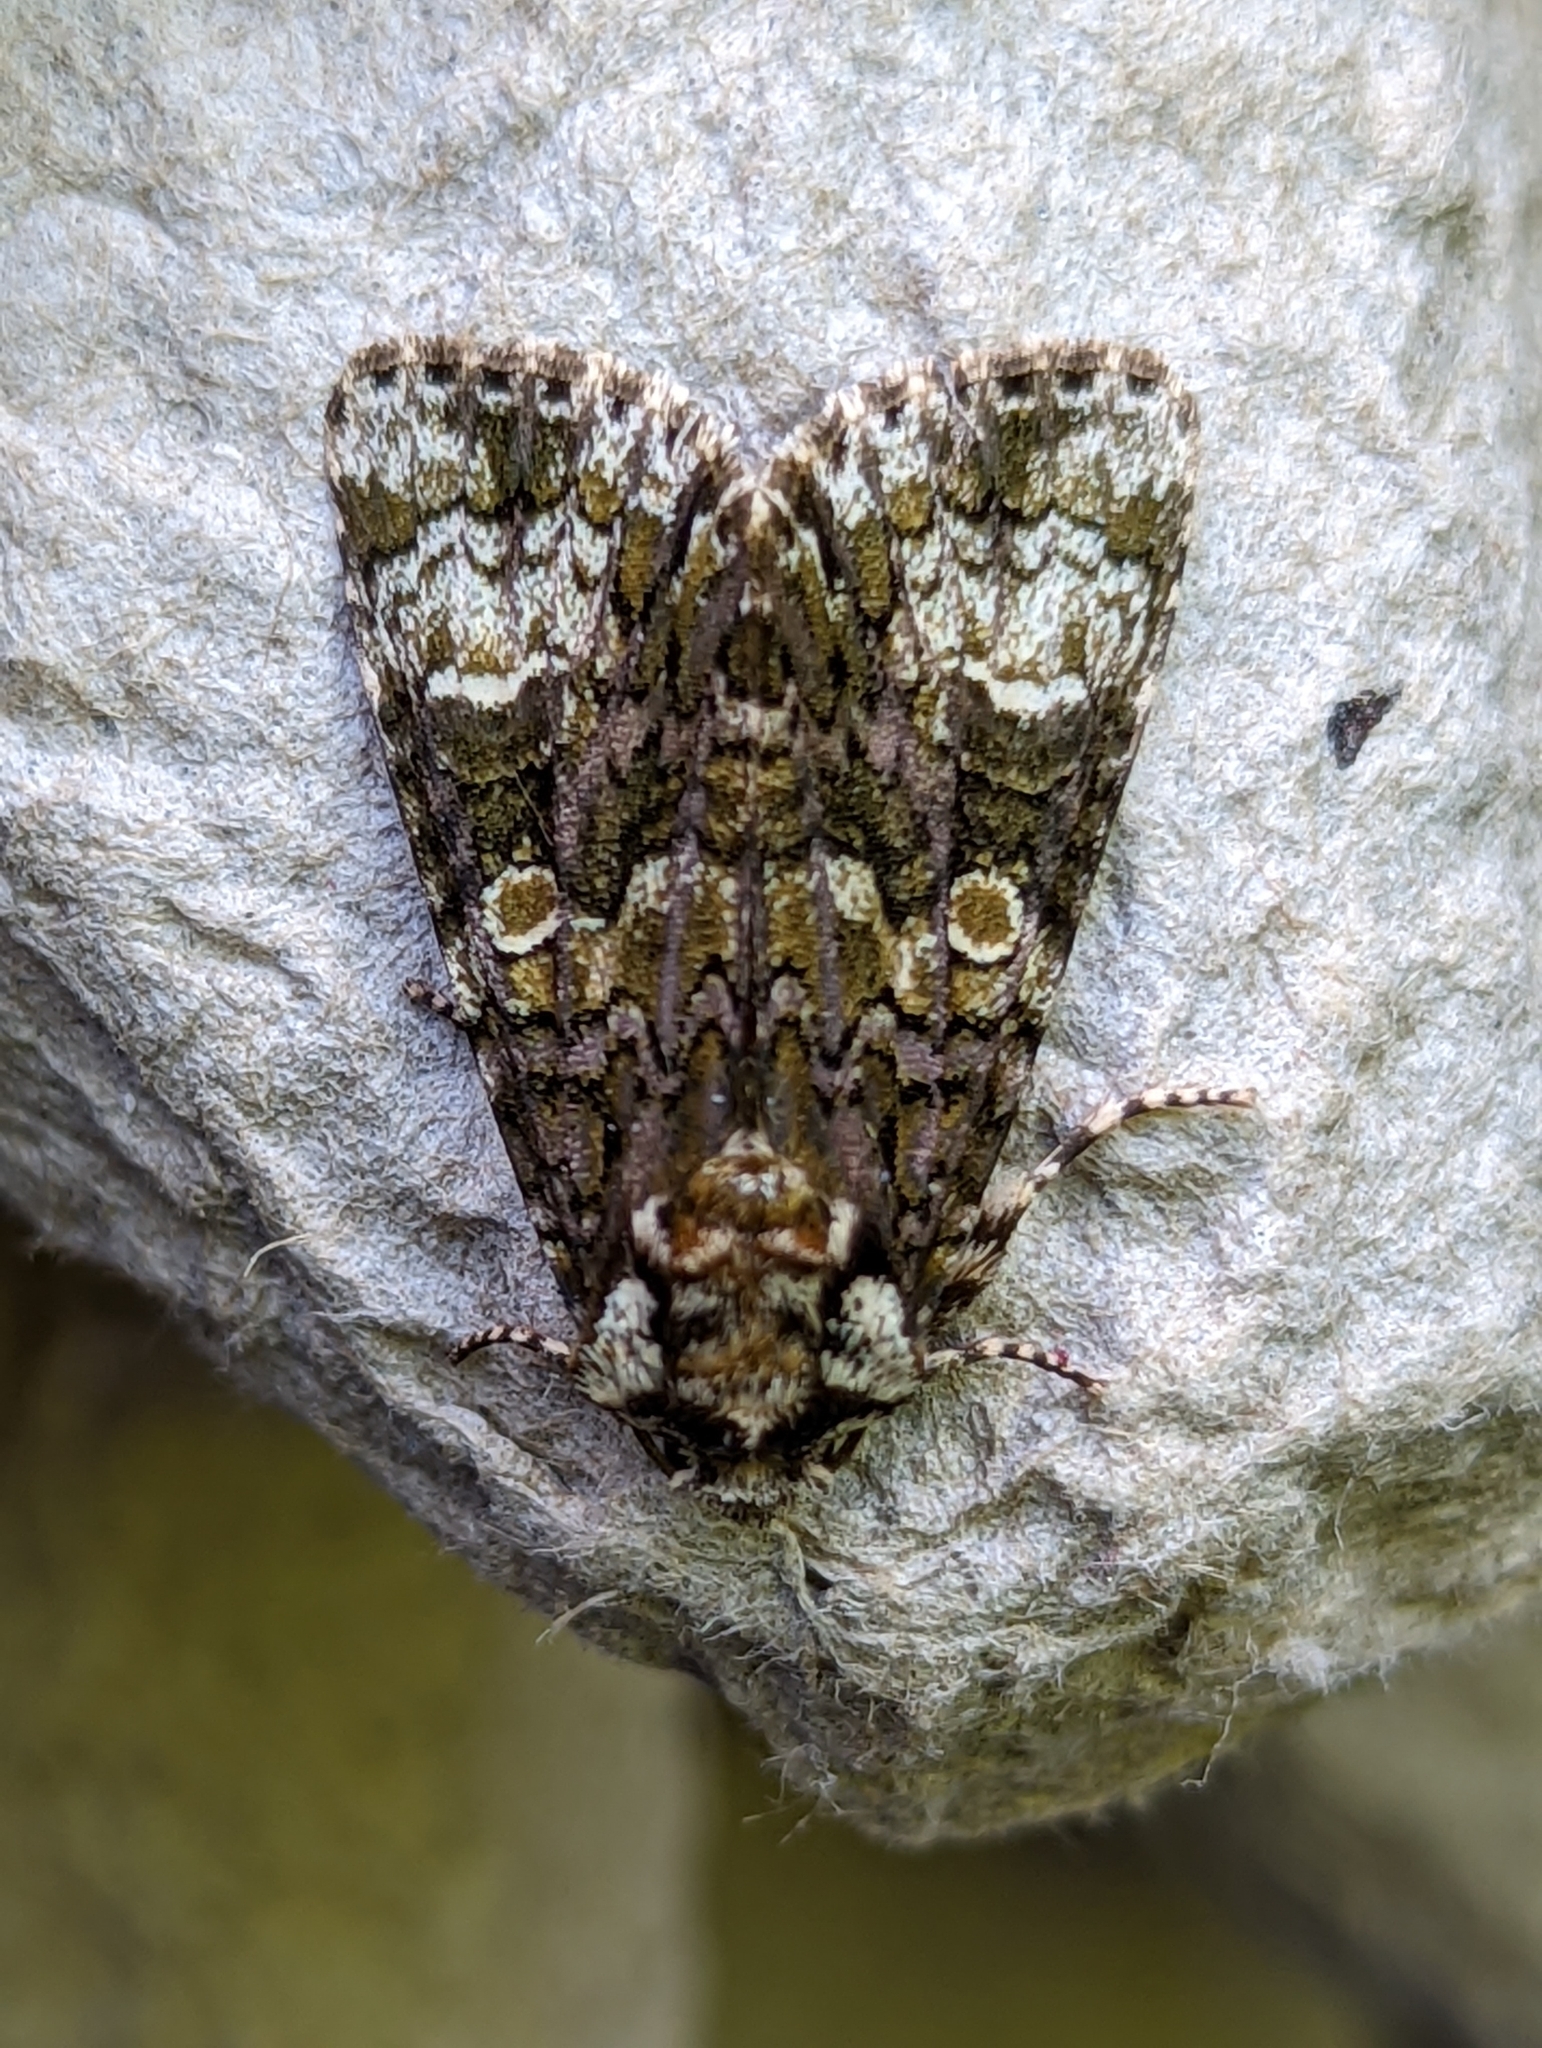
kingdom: Animalia
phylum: Arthropoda
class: Insecta
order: Lepidoptera
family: Noctuidae
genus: Craniophora
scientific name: Craniophora ligustri
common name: Coronet
